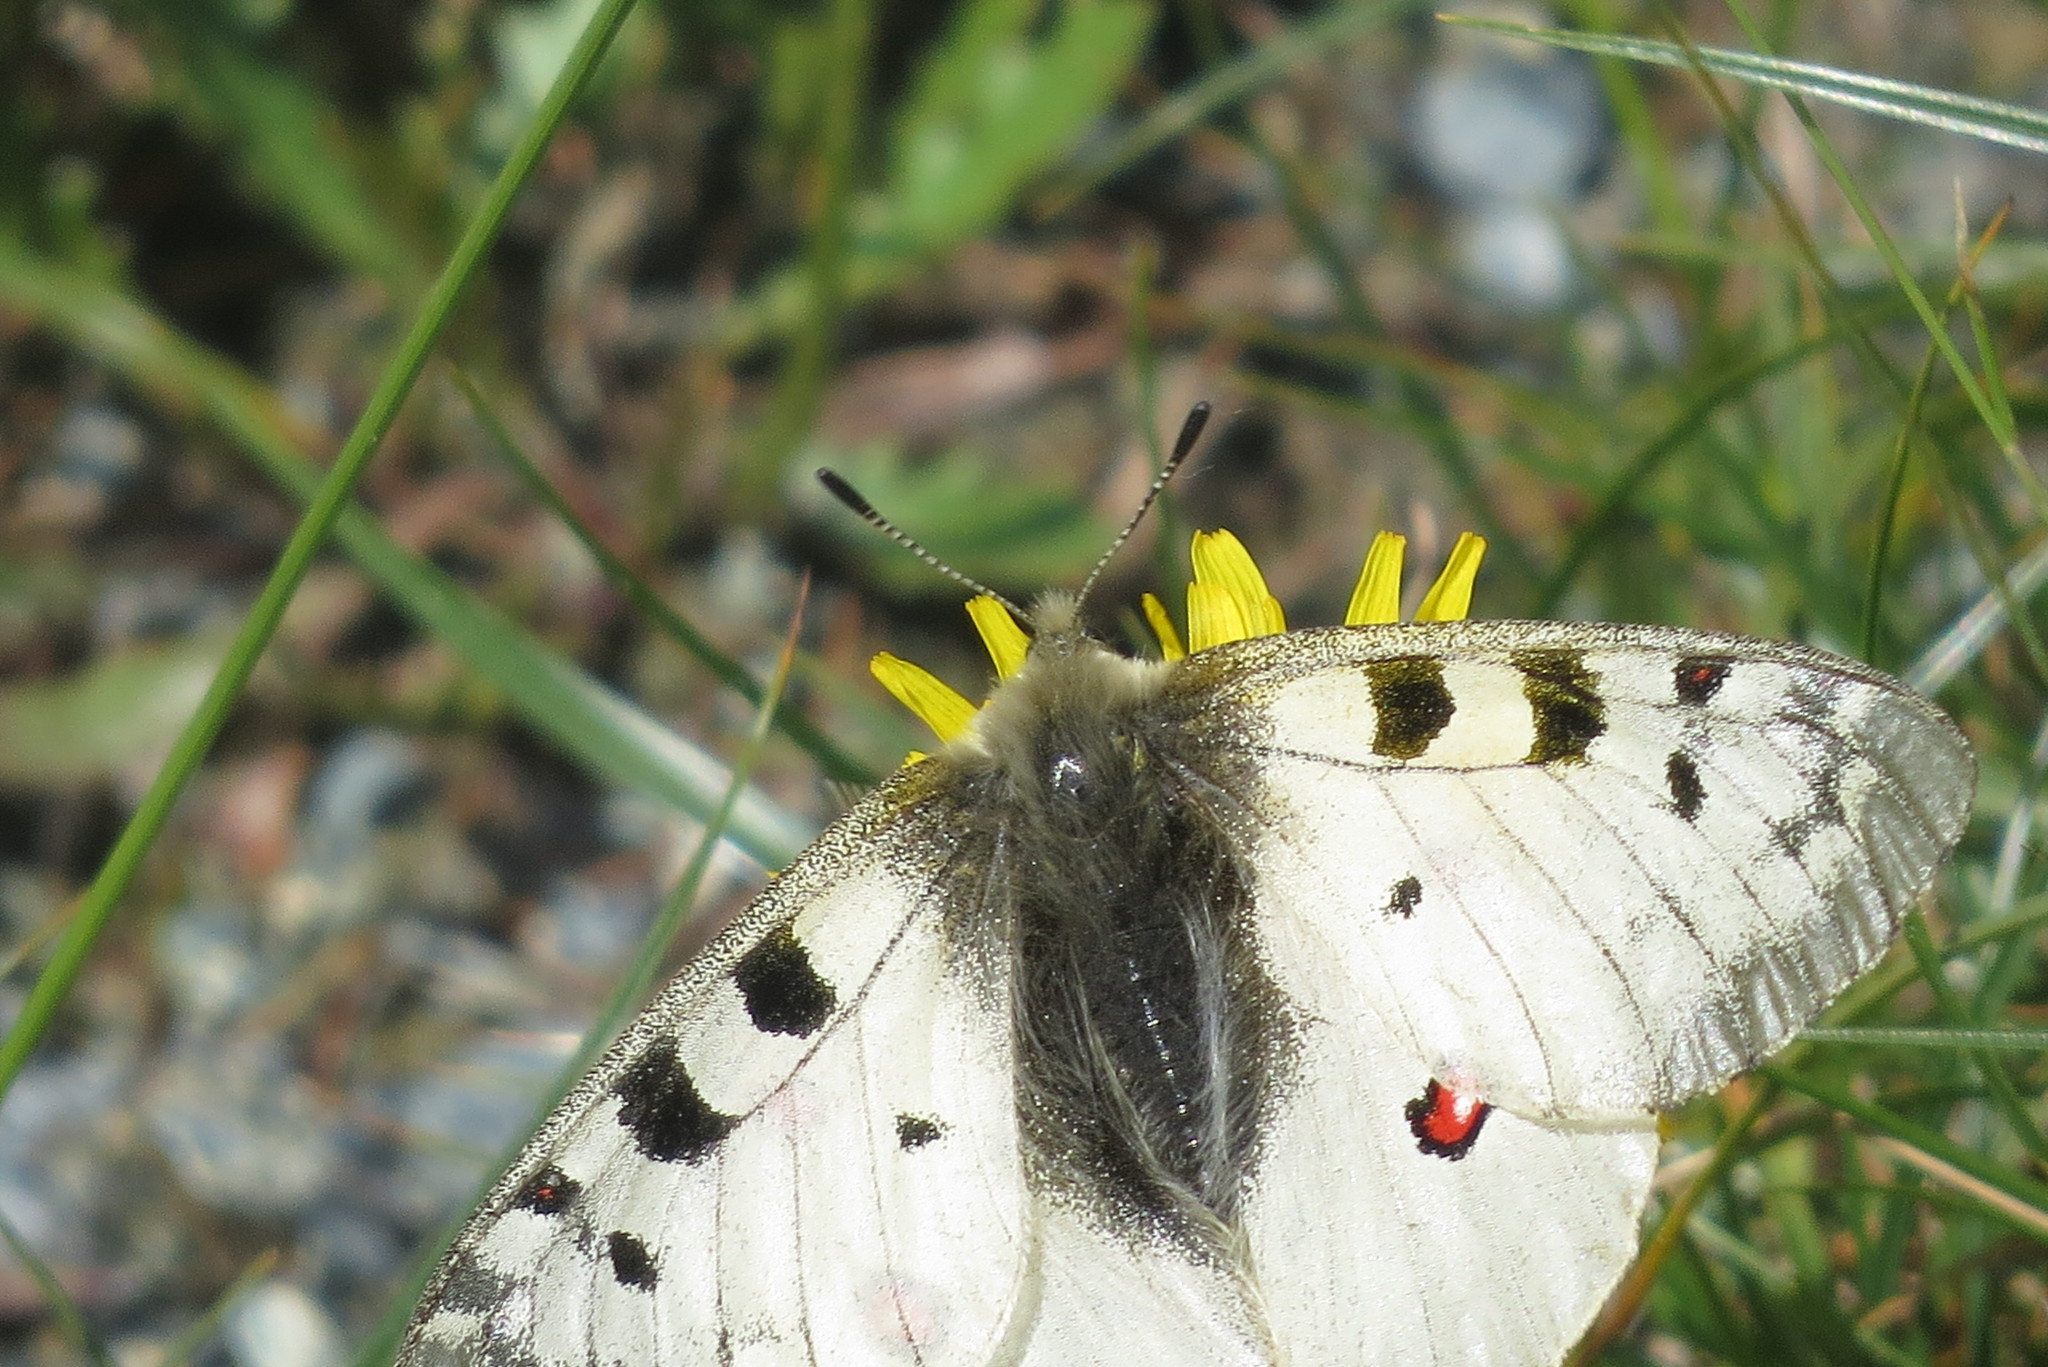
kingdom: Animalia
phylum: Arthropoda
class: Insecta
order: Lepidoptera
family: Papilionidae
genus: Parnassius
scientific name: Parnassius phoebus
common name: Small apollo
